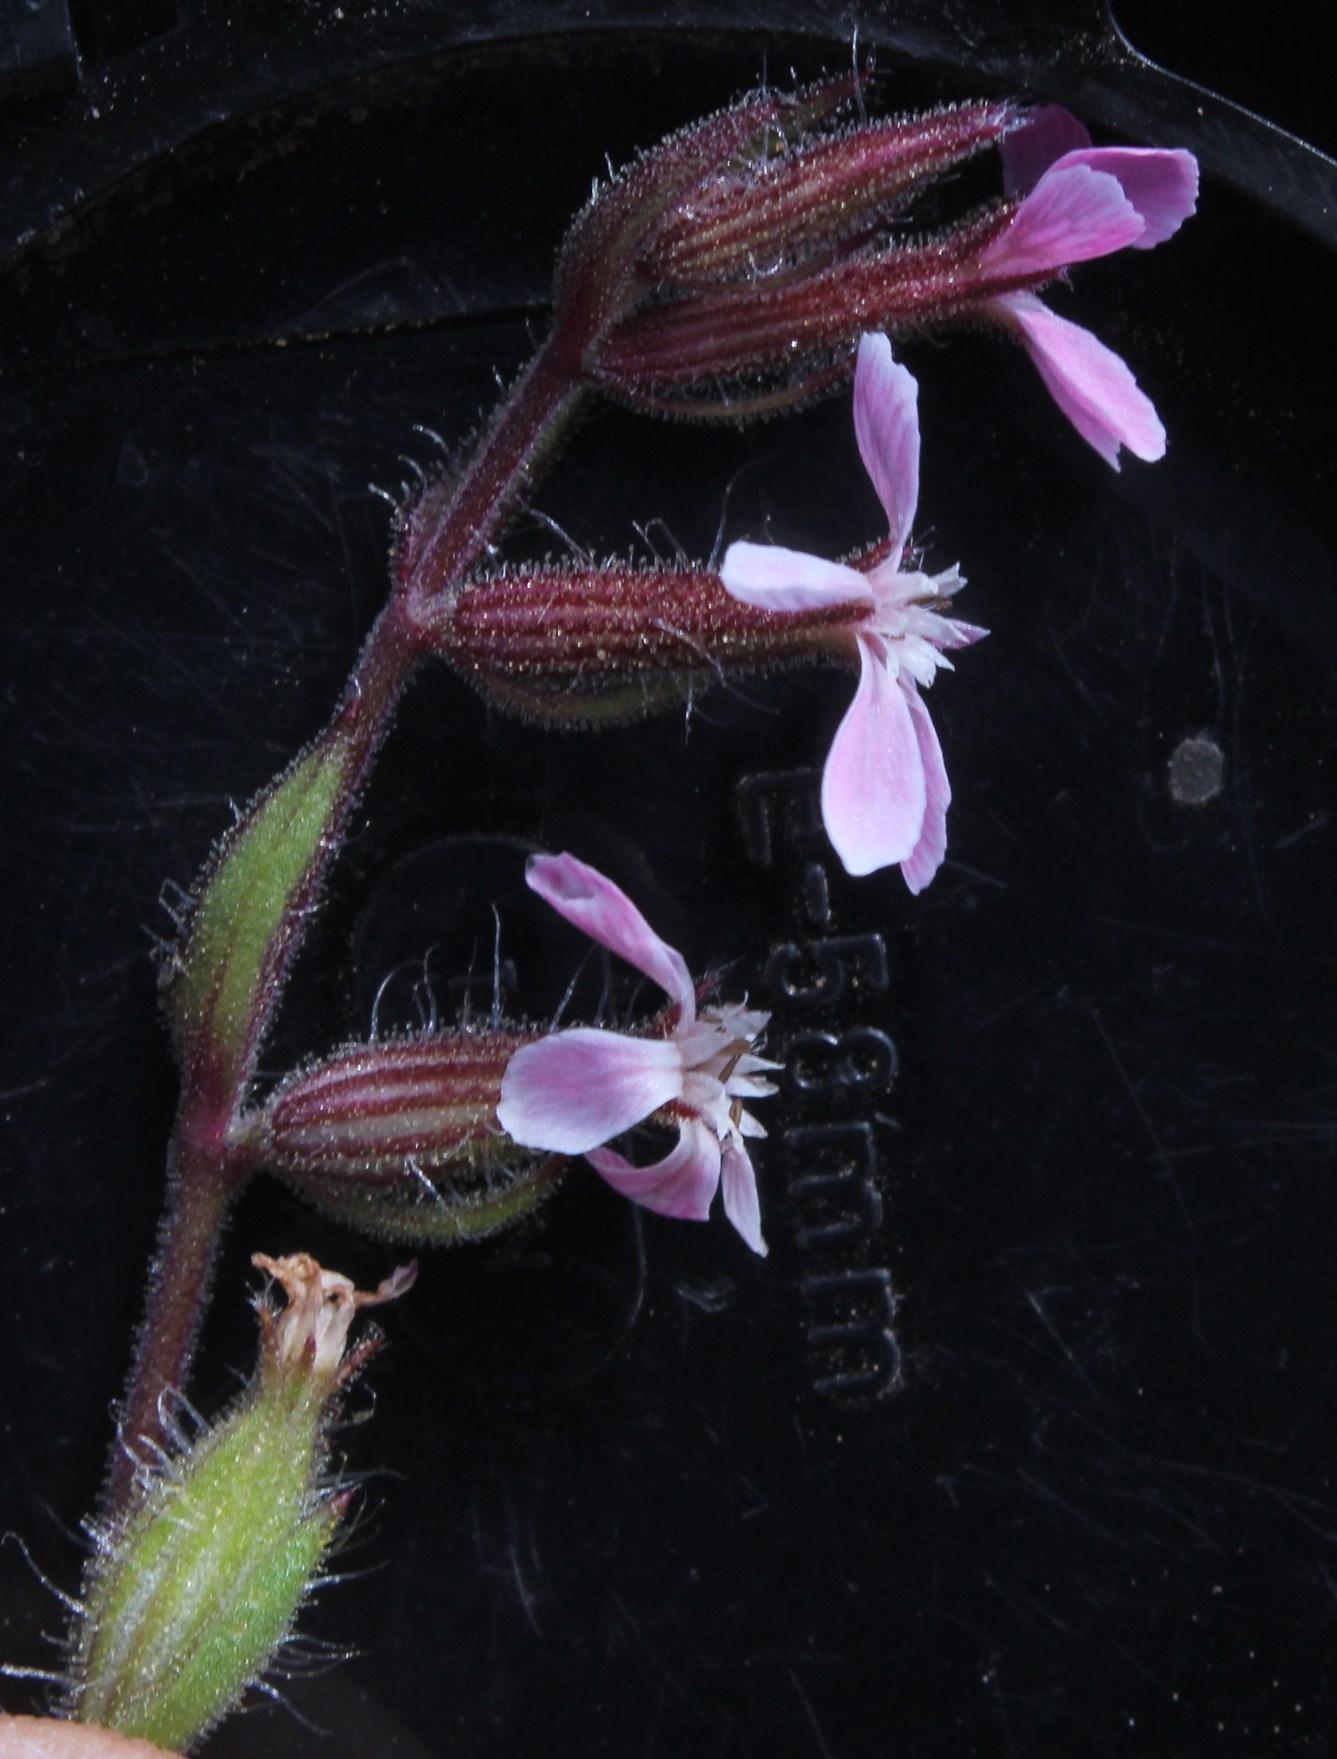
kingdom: Plantae
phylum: Tracheophyta
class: Magnoliopsida
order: Caryophyllales
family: Caryophyllaceae
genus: Silene
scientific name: Silene gallica
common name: Small-flowered catchfly
